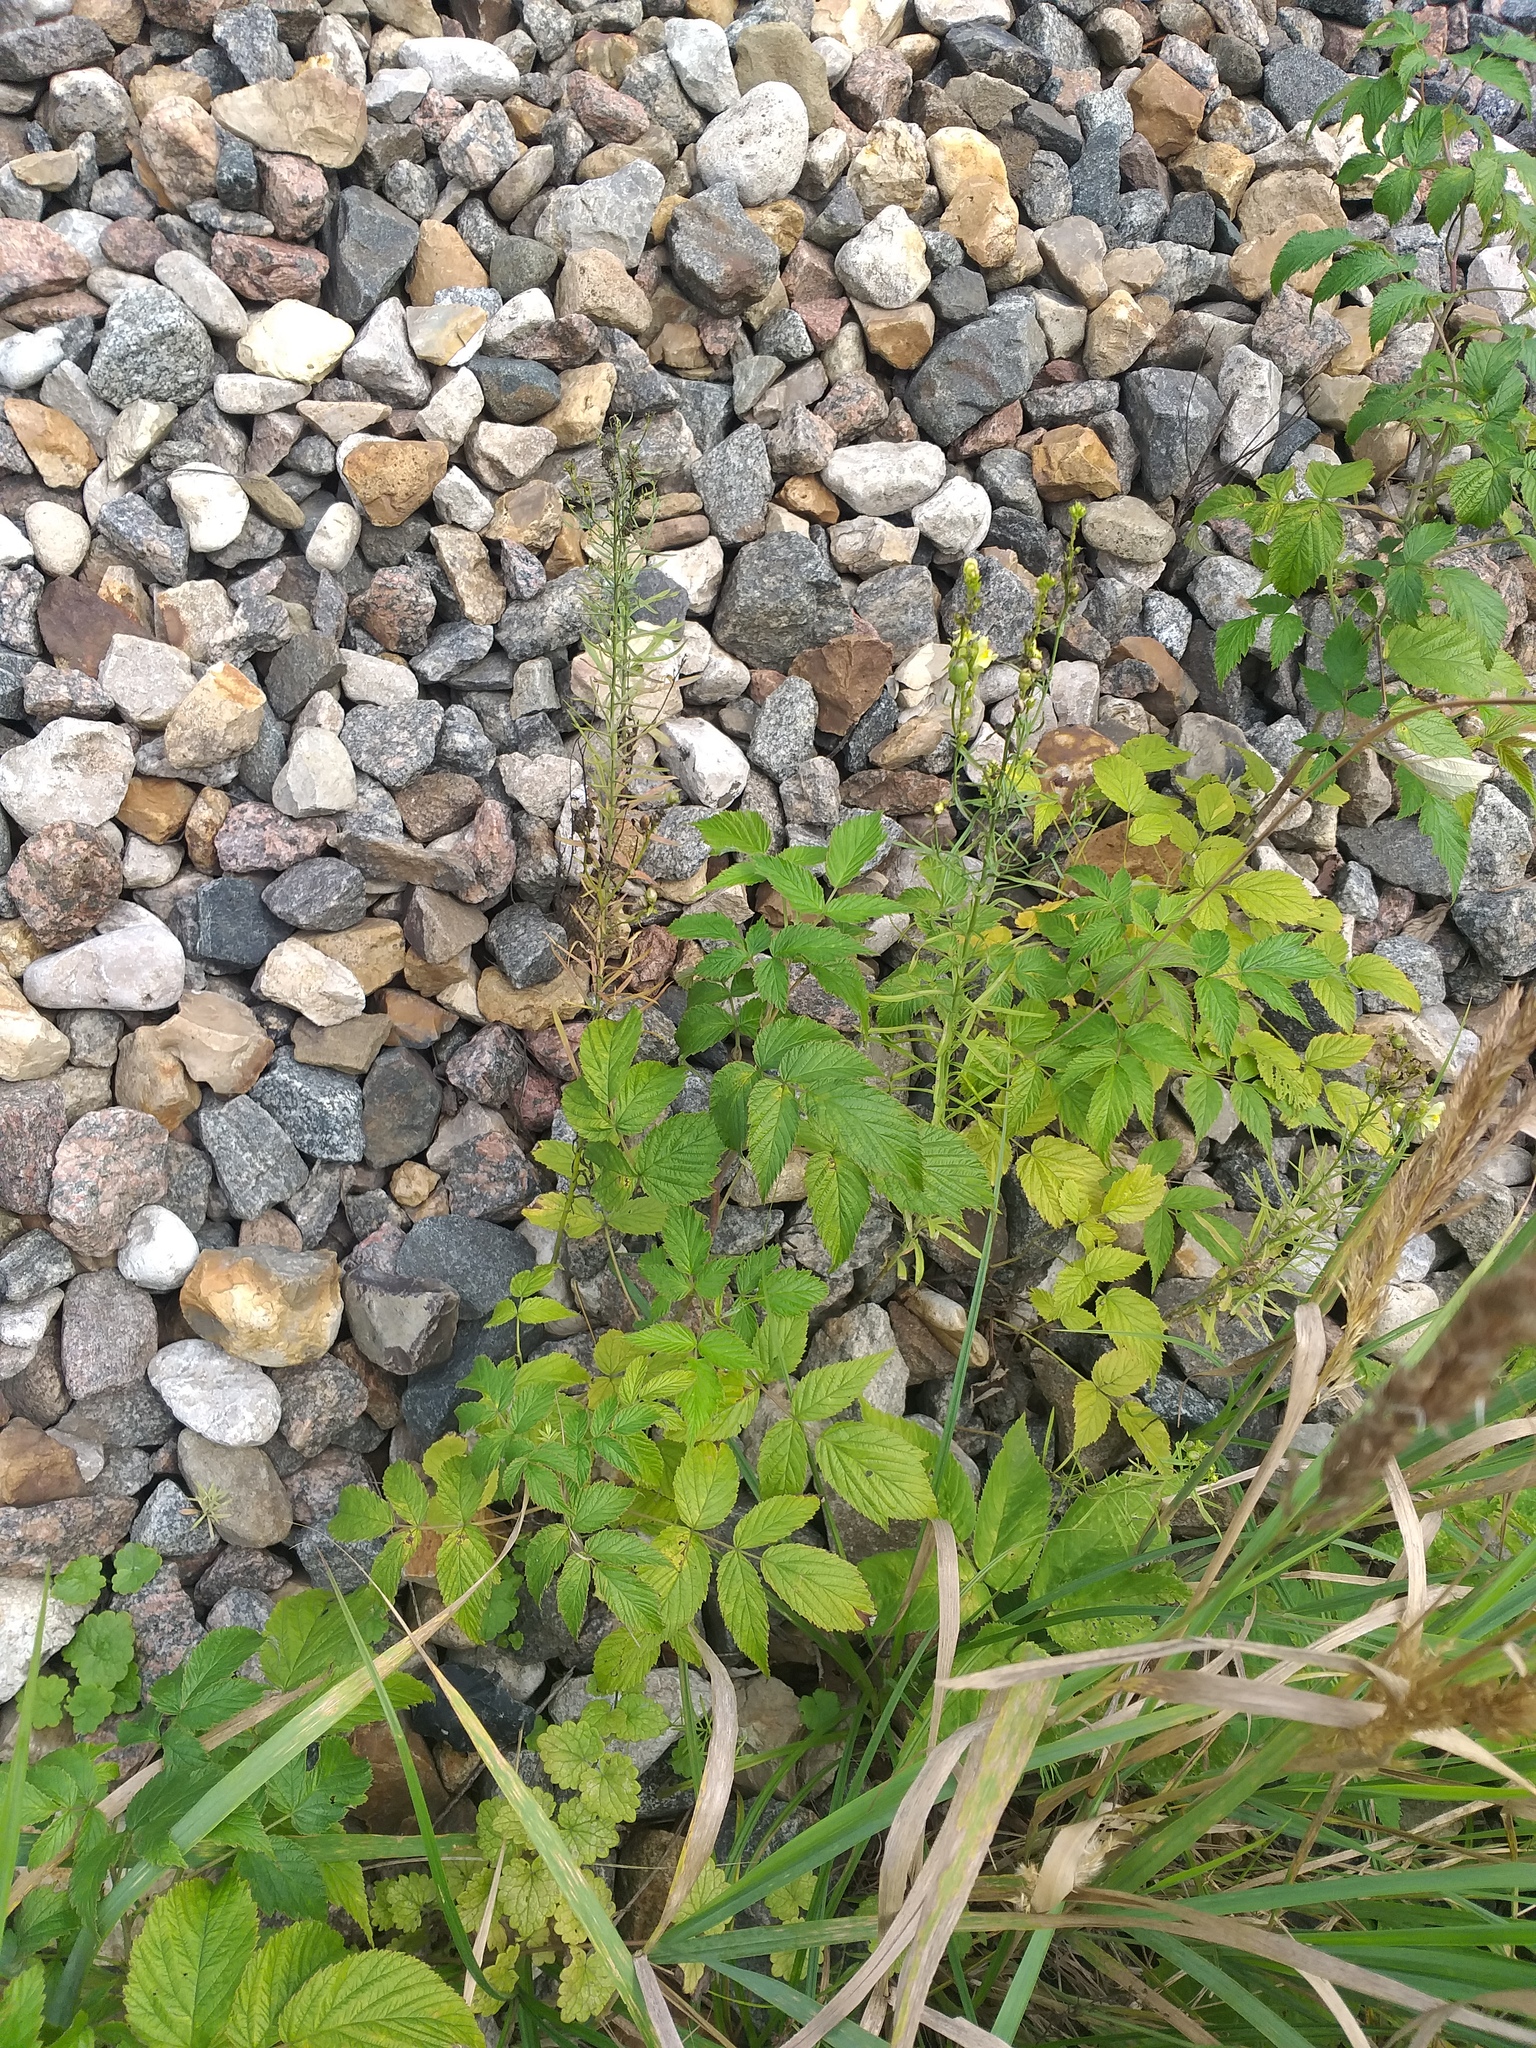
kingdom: Plantae
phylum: Tracheophyta
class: Magnoliopsida
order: Rosales
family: Rosaceae
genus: Rubus
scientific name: Rubus idaeus
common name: Raspberry
